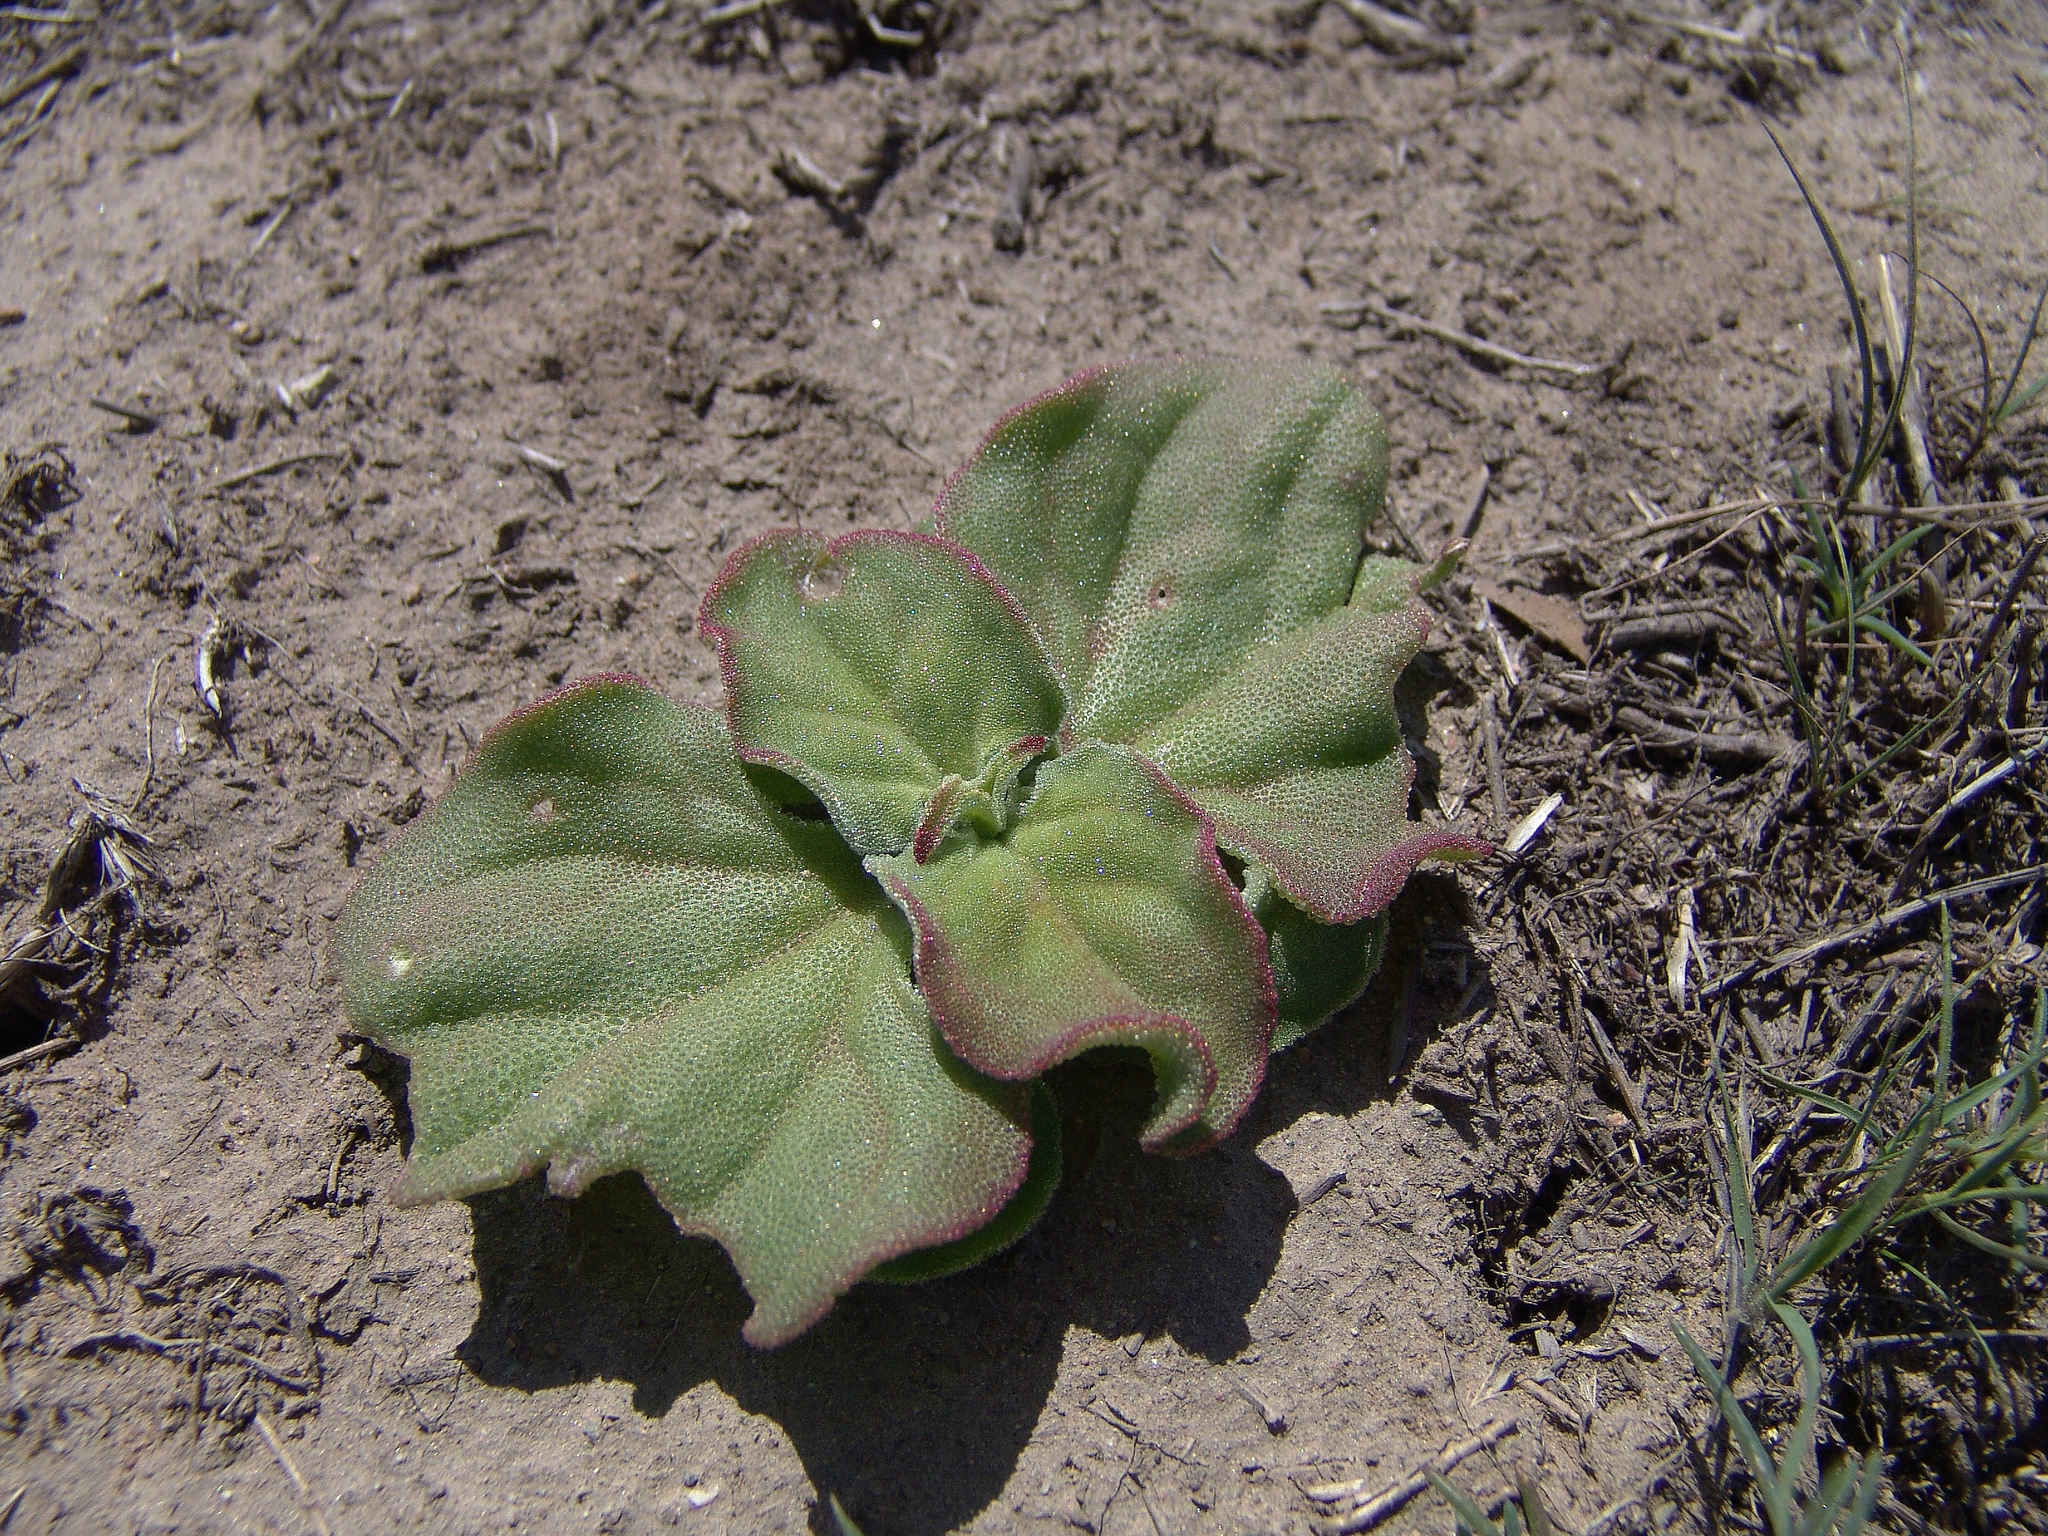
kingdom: Plantae
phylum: Tracheophyta
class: Magnoliopsida
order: Caryophyllales
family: Aizoaceae
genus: Mesembryanthemum
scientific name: Mesembryanthemum crystallinum
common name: Common iceplant
